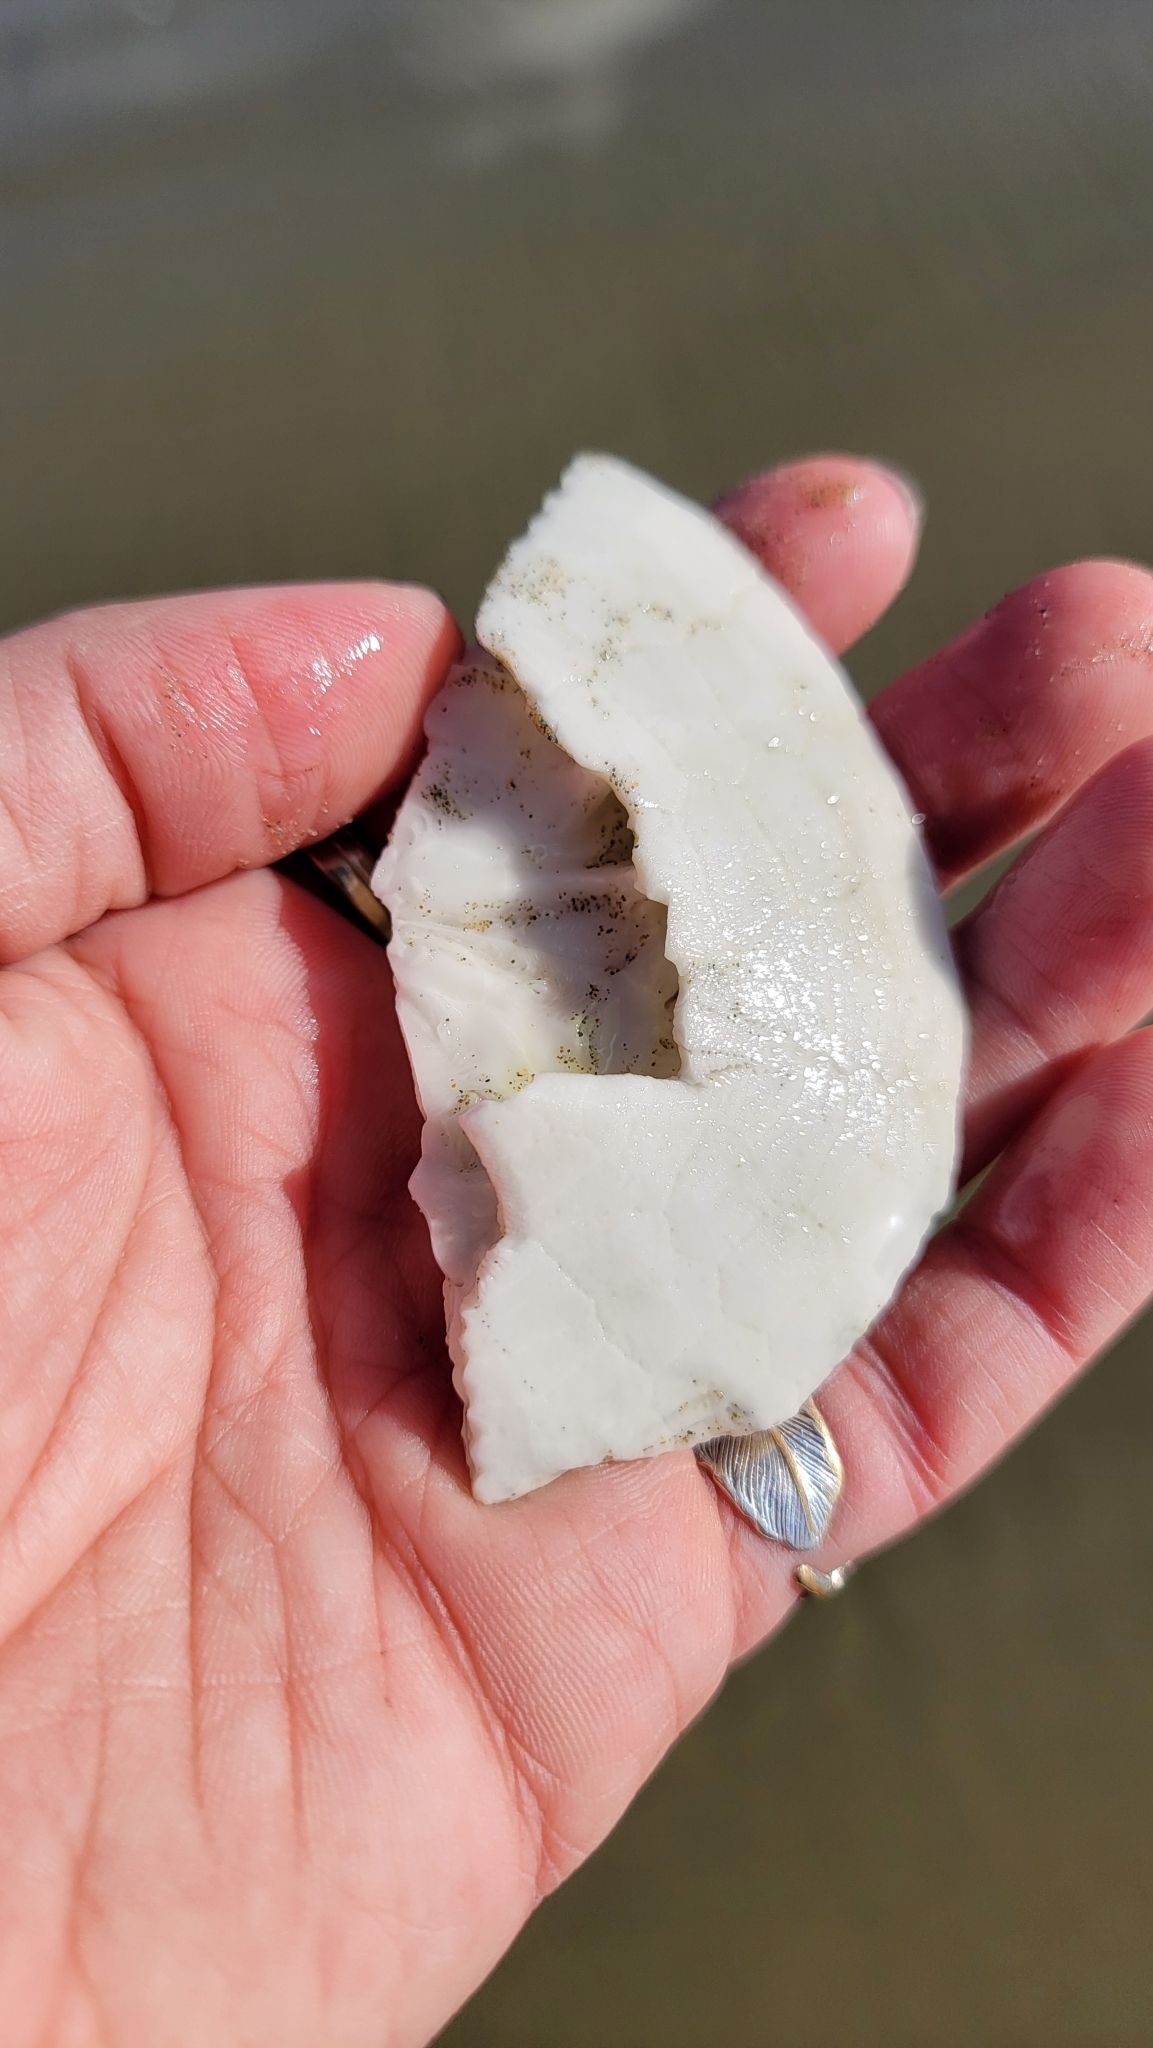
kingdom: Animalia
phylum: Echinodermata
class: Echinoidea
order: Echinolampadacea
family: Dendrasteridae
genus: Dendraster
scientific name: Dendraster excentricus
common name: Eccentric sand dollar sea urchin
